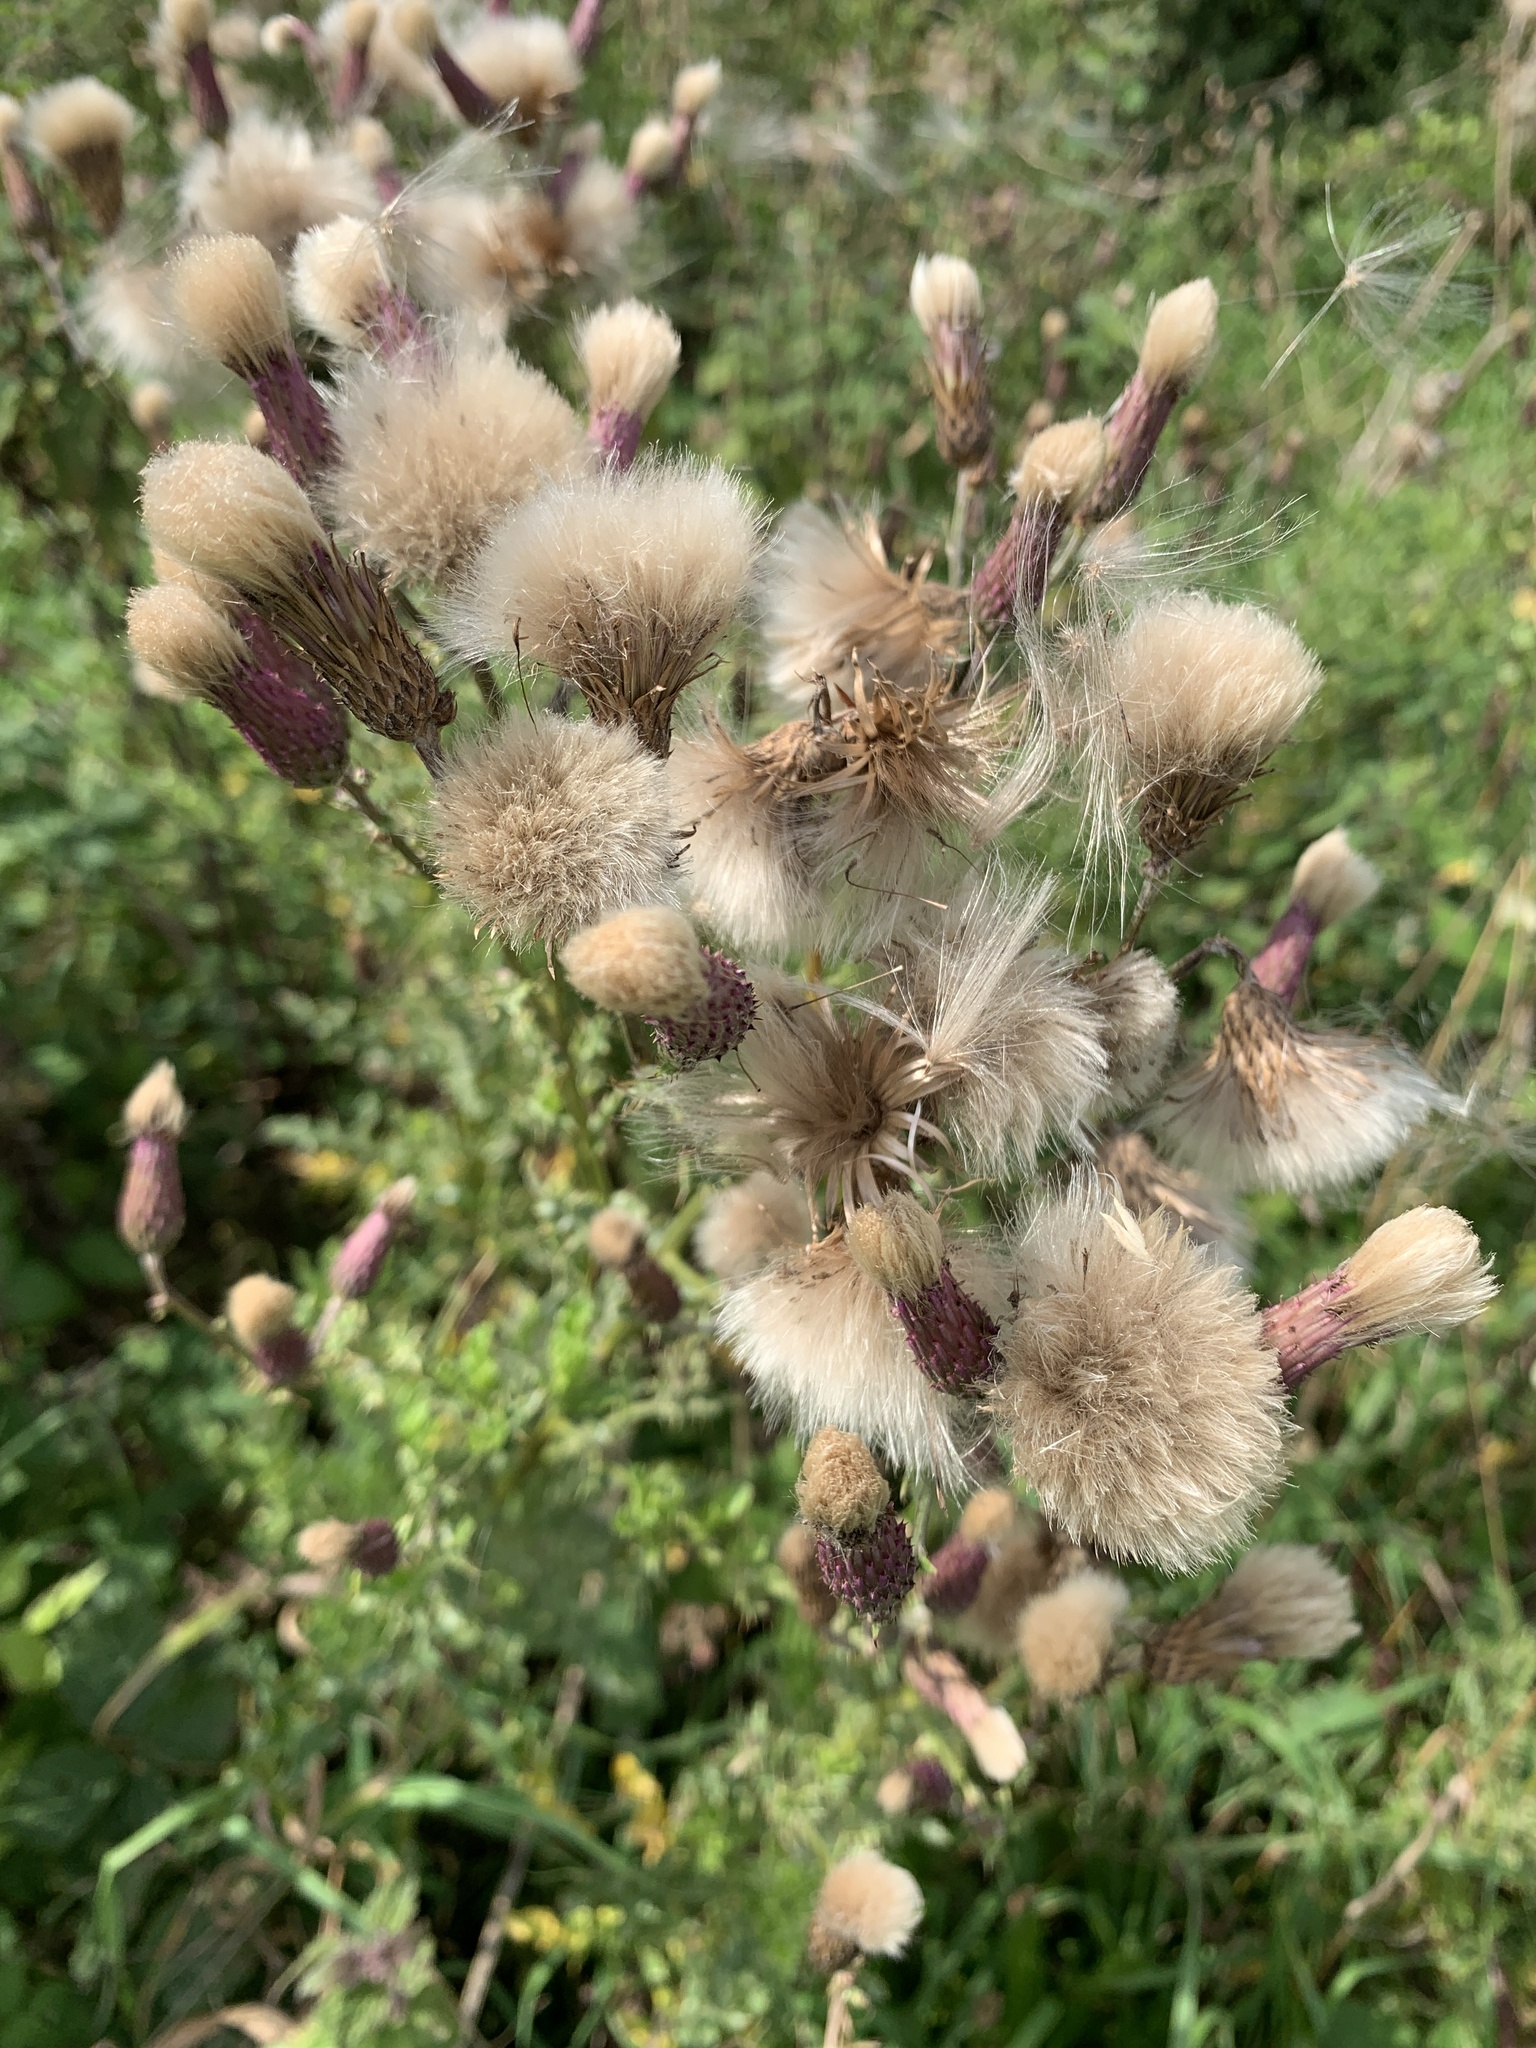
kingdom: Plantae
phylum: Tracheophyta
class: Magnoliopsida
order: Asterales
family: Asteraceae
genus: Cirsium
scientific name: Cirsium arvense
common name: Creeping thistle
